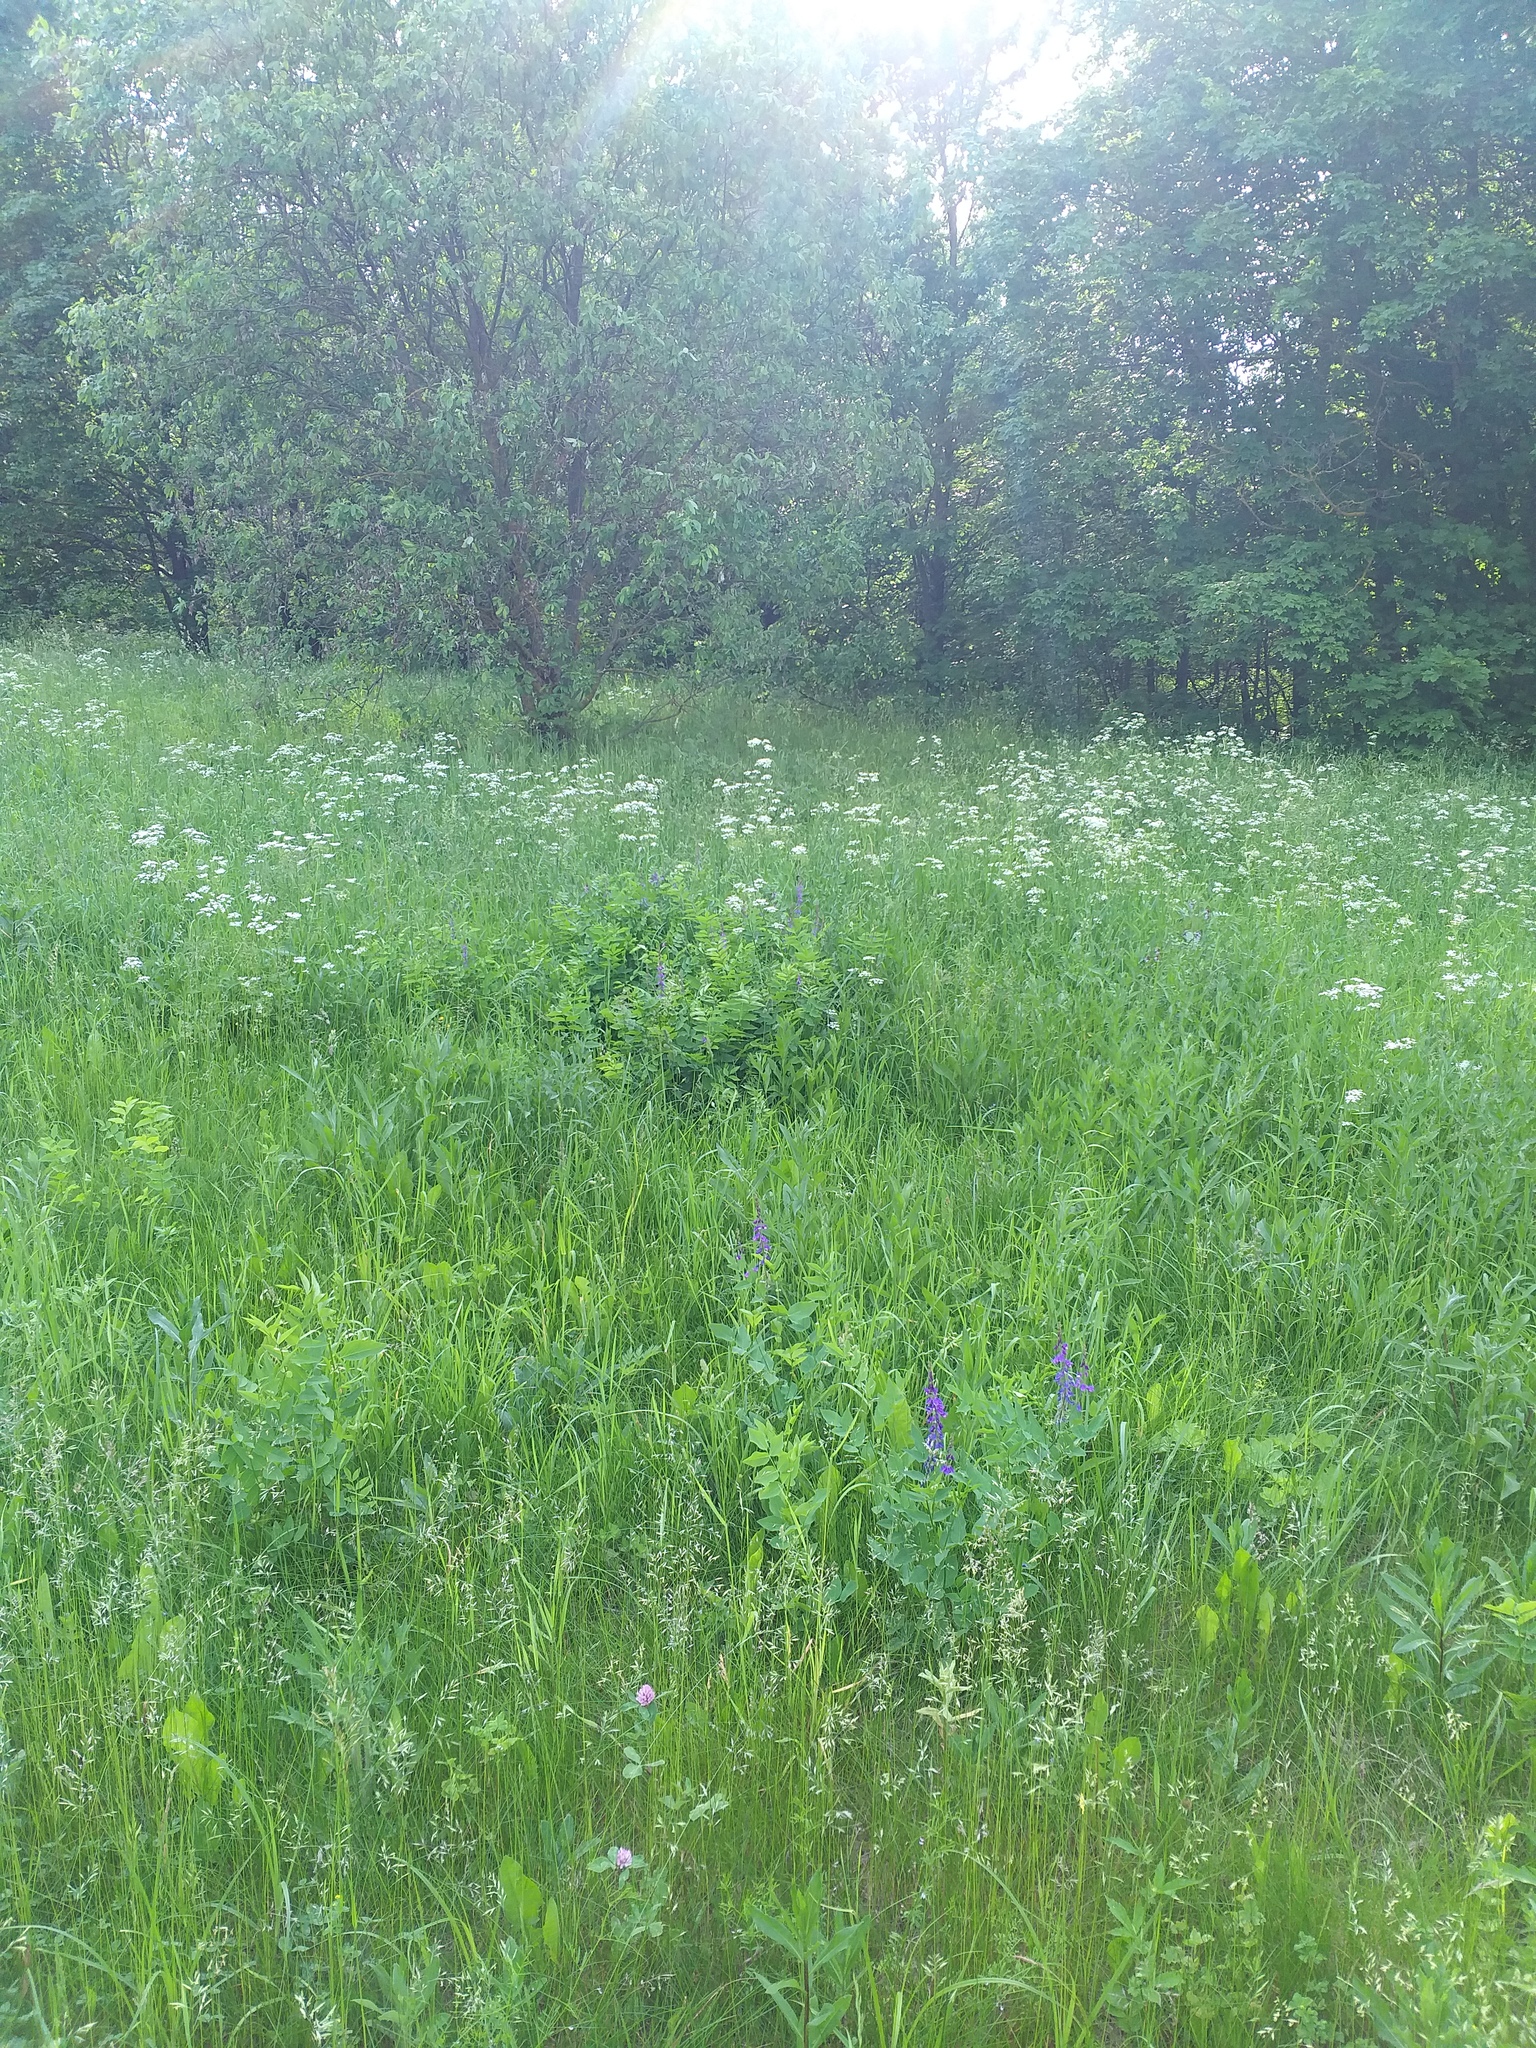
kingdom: Plantae
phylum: Tracheophyta
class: Magnoliopsida
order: Fabales
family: Fabaceae
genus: Galega
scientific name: Galega orientalis
